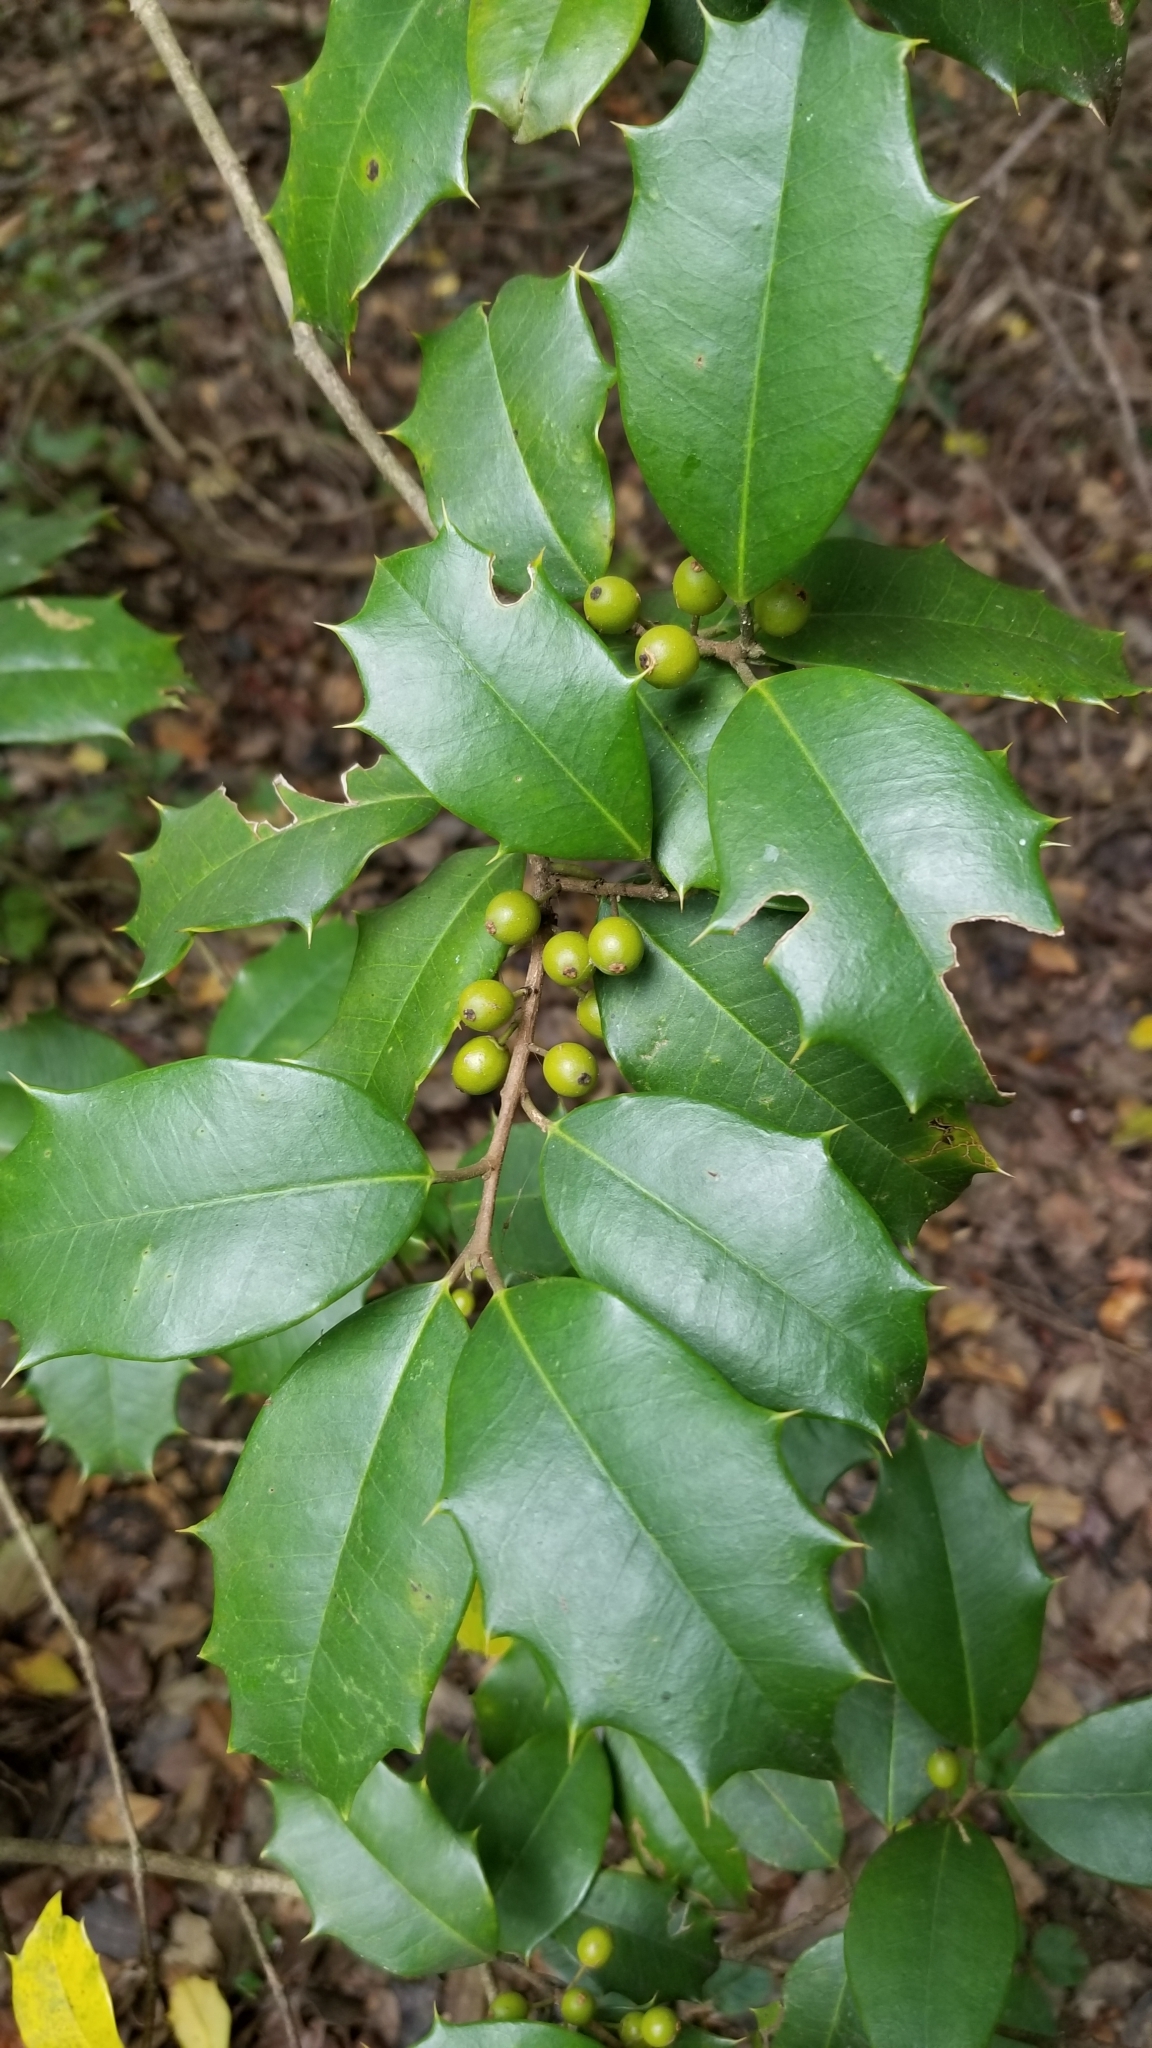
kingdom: Plantae
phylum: Tracheophyta
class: Magnoliopsida
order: Aquifoliales
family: Aquifoliaceae
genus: Ilex
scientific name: Ilex opaca
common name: American holly
